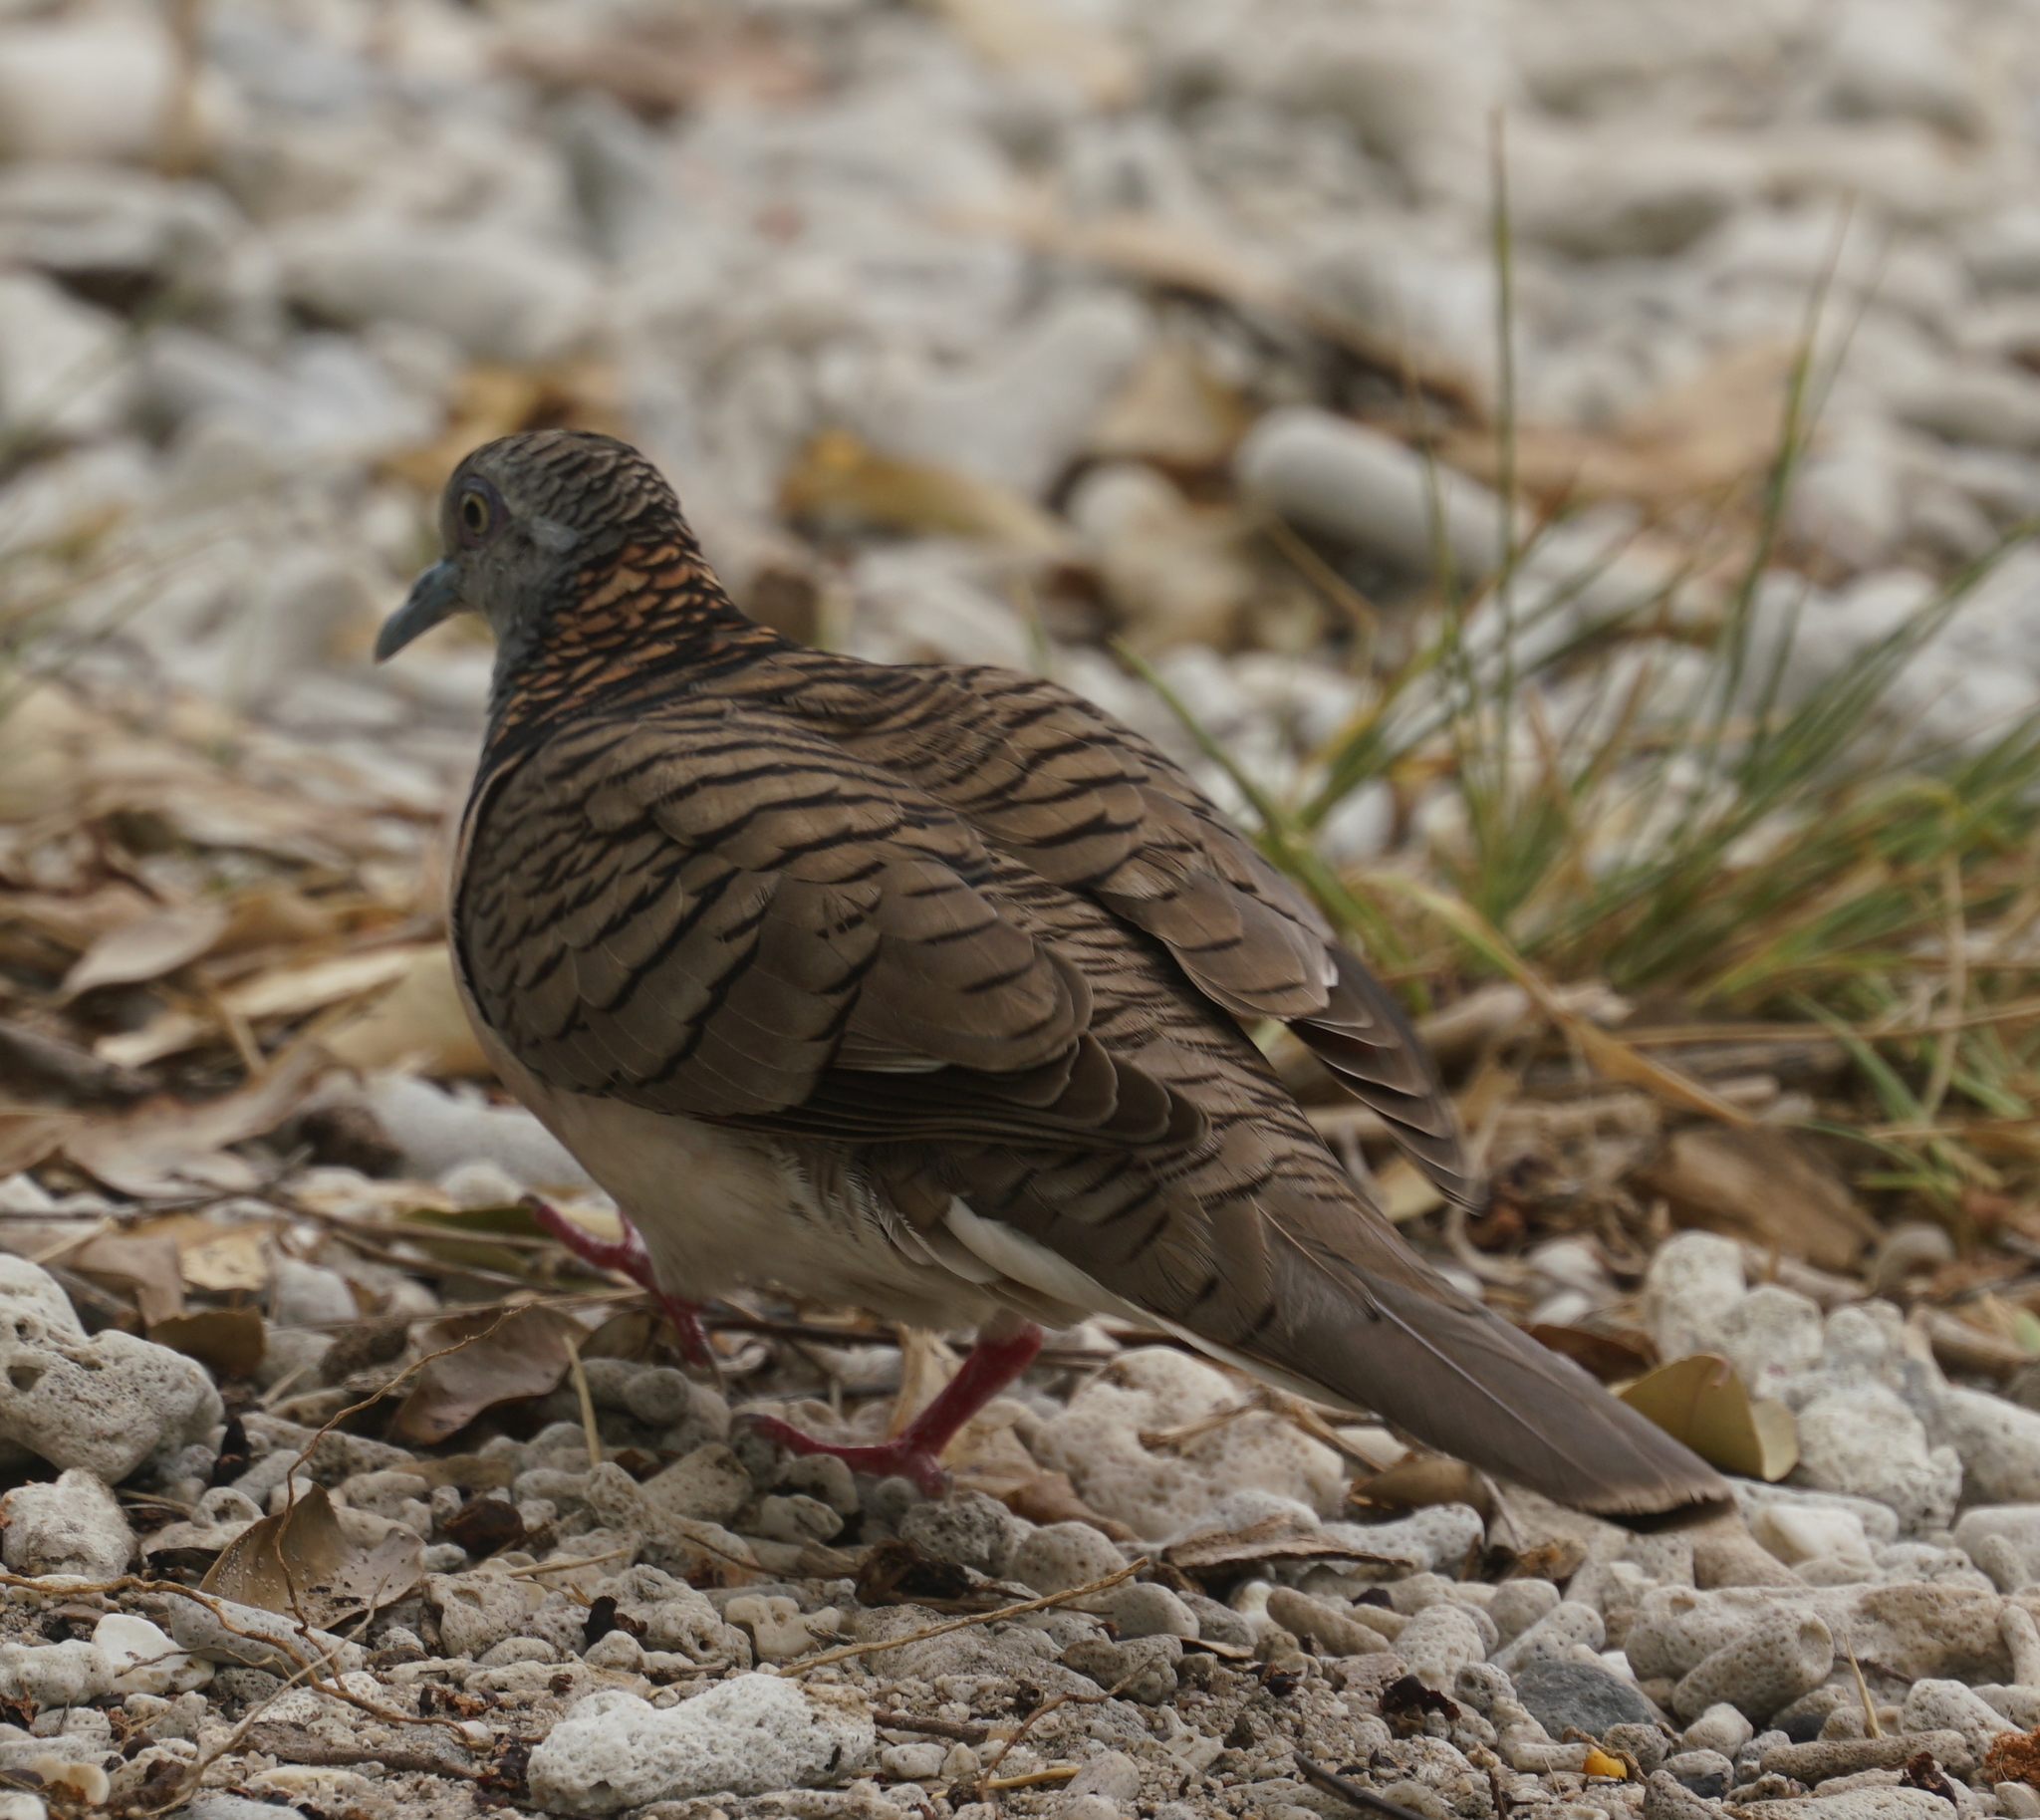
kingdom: Animalia
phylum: Chordata
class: Aves
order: Columbiformes
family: Columbidae
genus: Geopelia
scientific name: Geopelia humeralis
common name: Bar-shouldered dove
